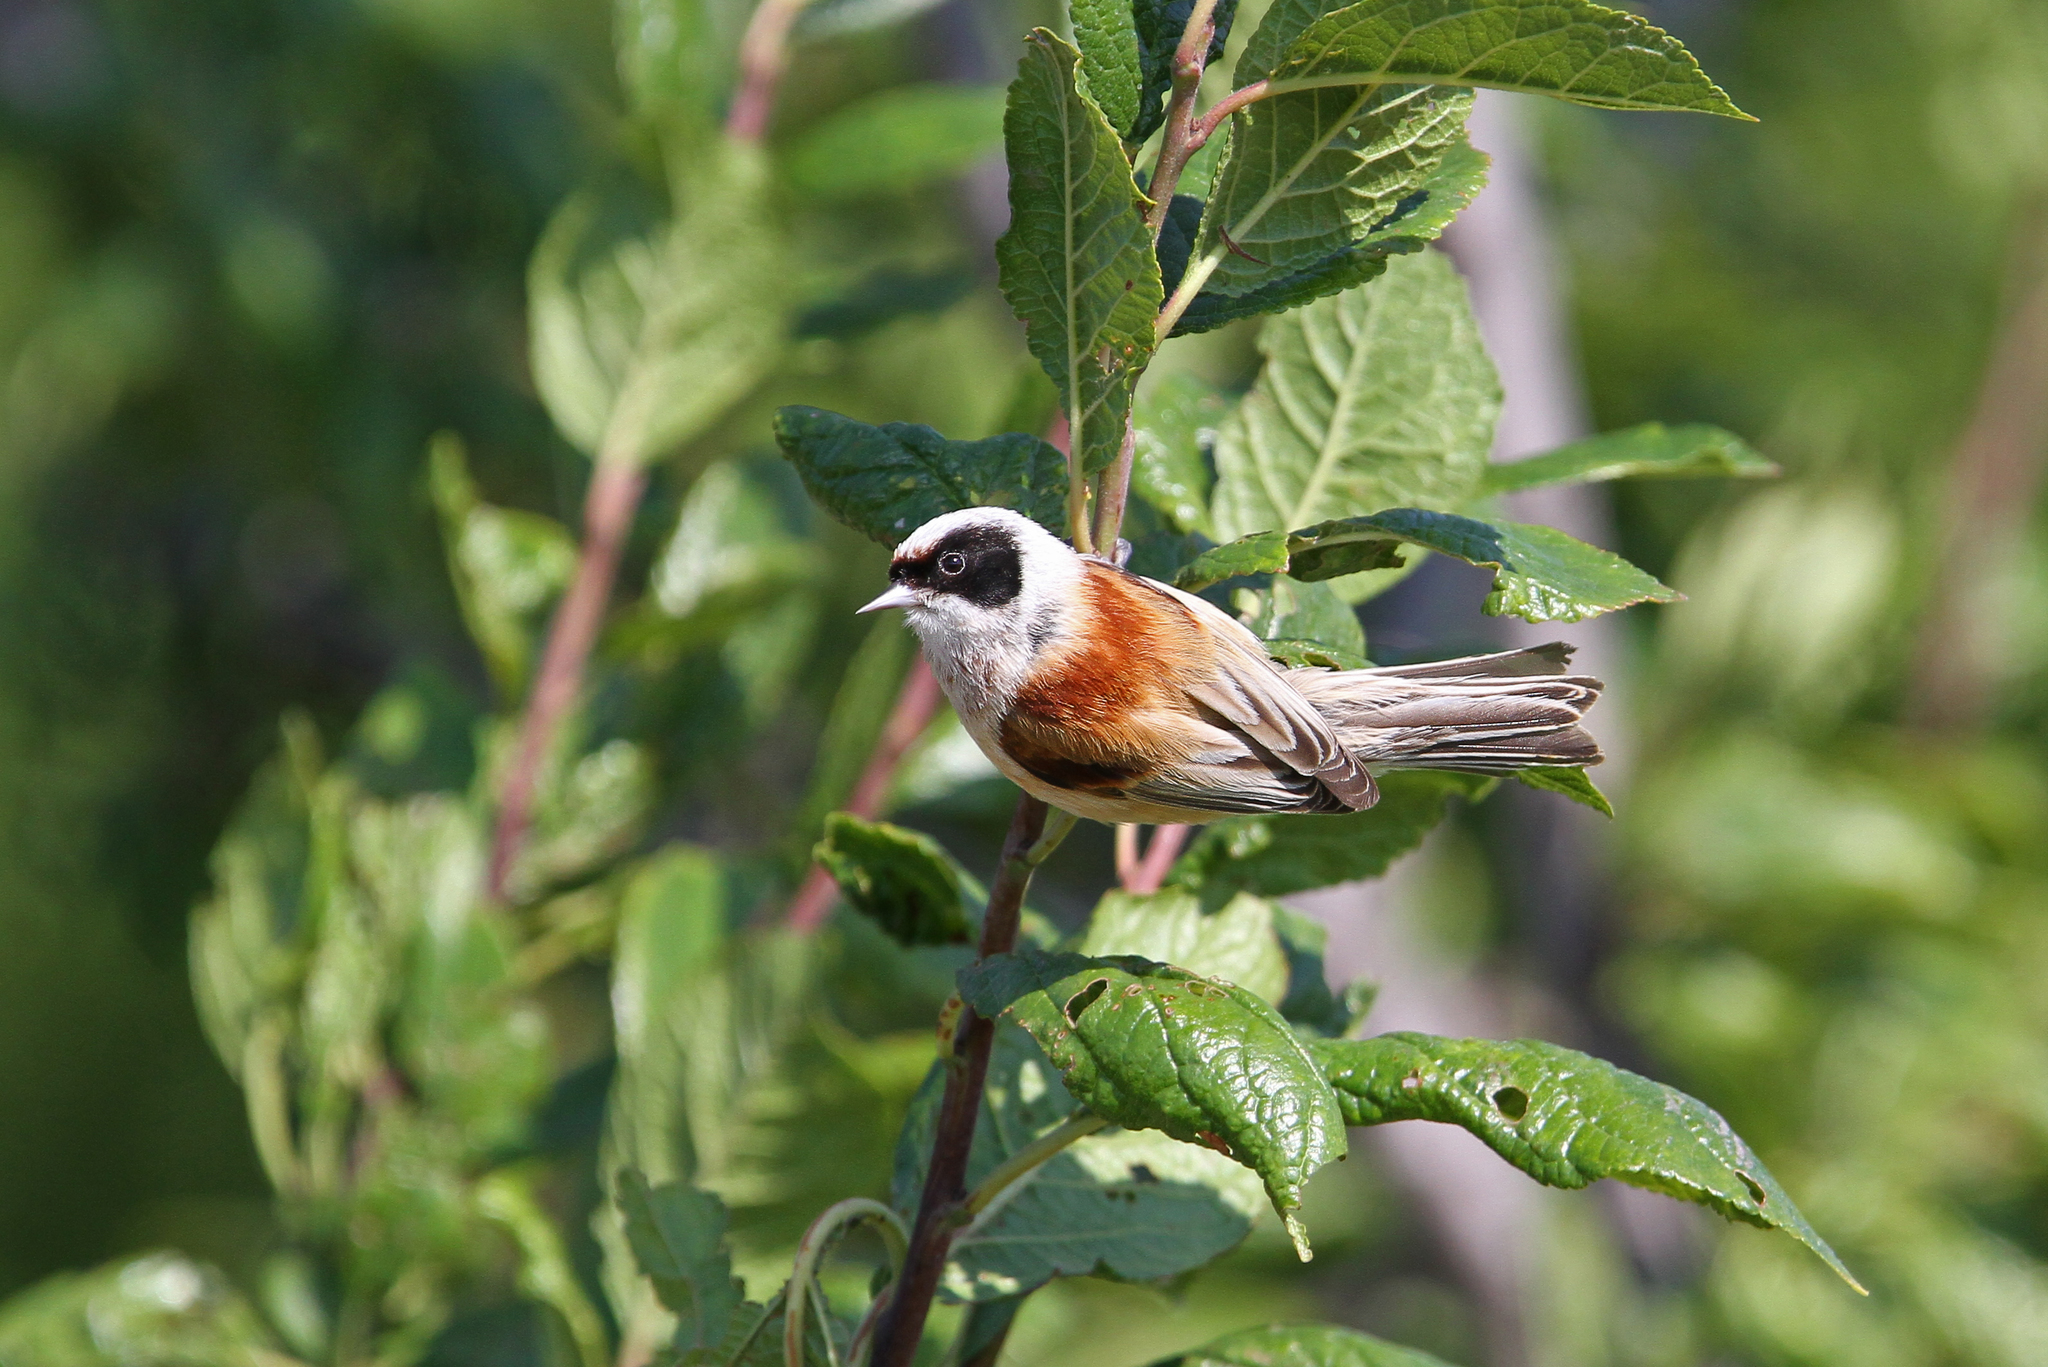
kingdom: Animalia
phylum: Chordata
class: Aves
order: Passeriformes
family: Remizidae
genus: Remiz
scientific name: Remiz pendulinus
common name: Eurasian penduline tit
